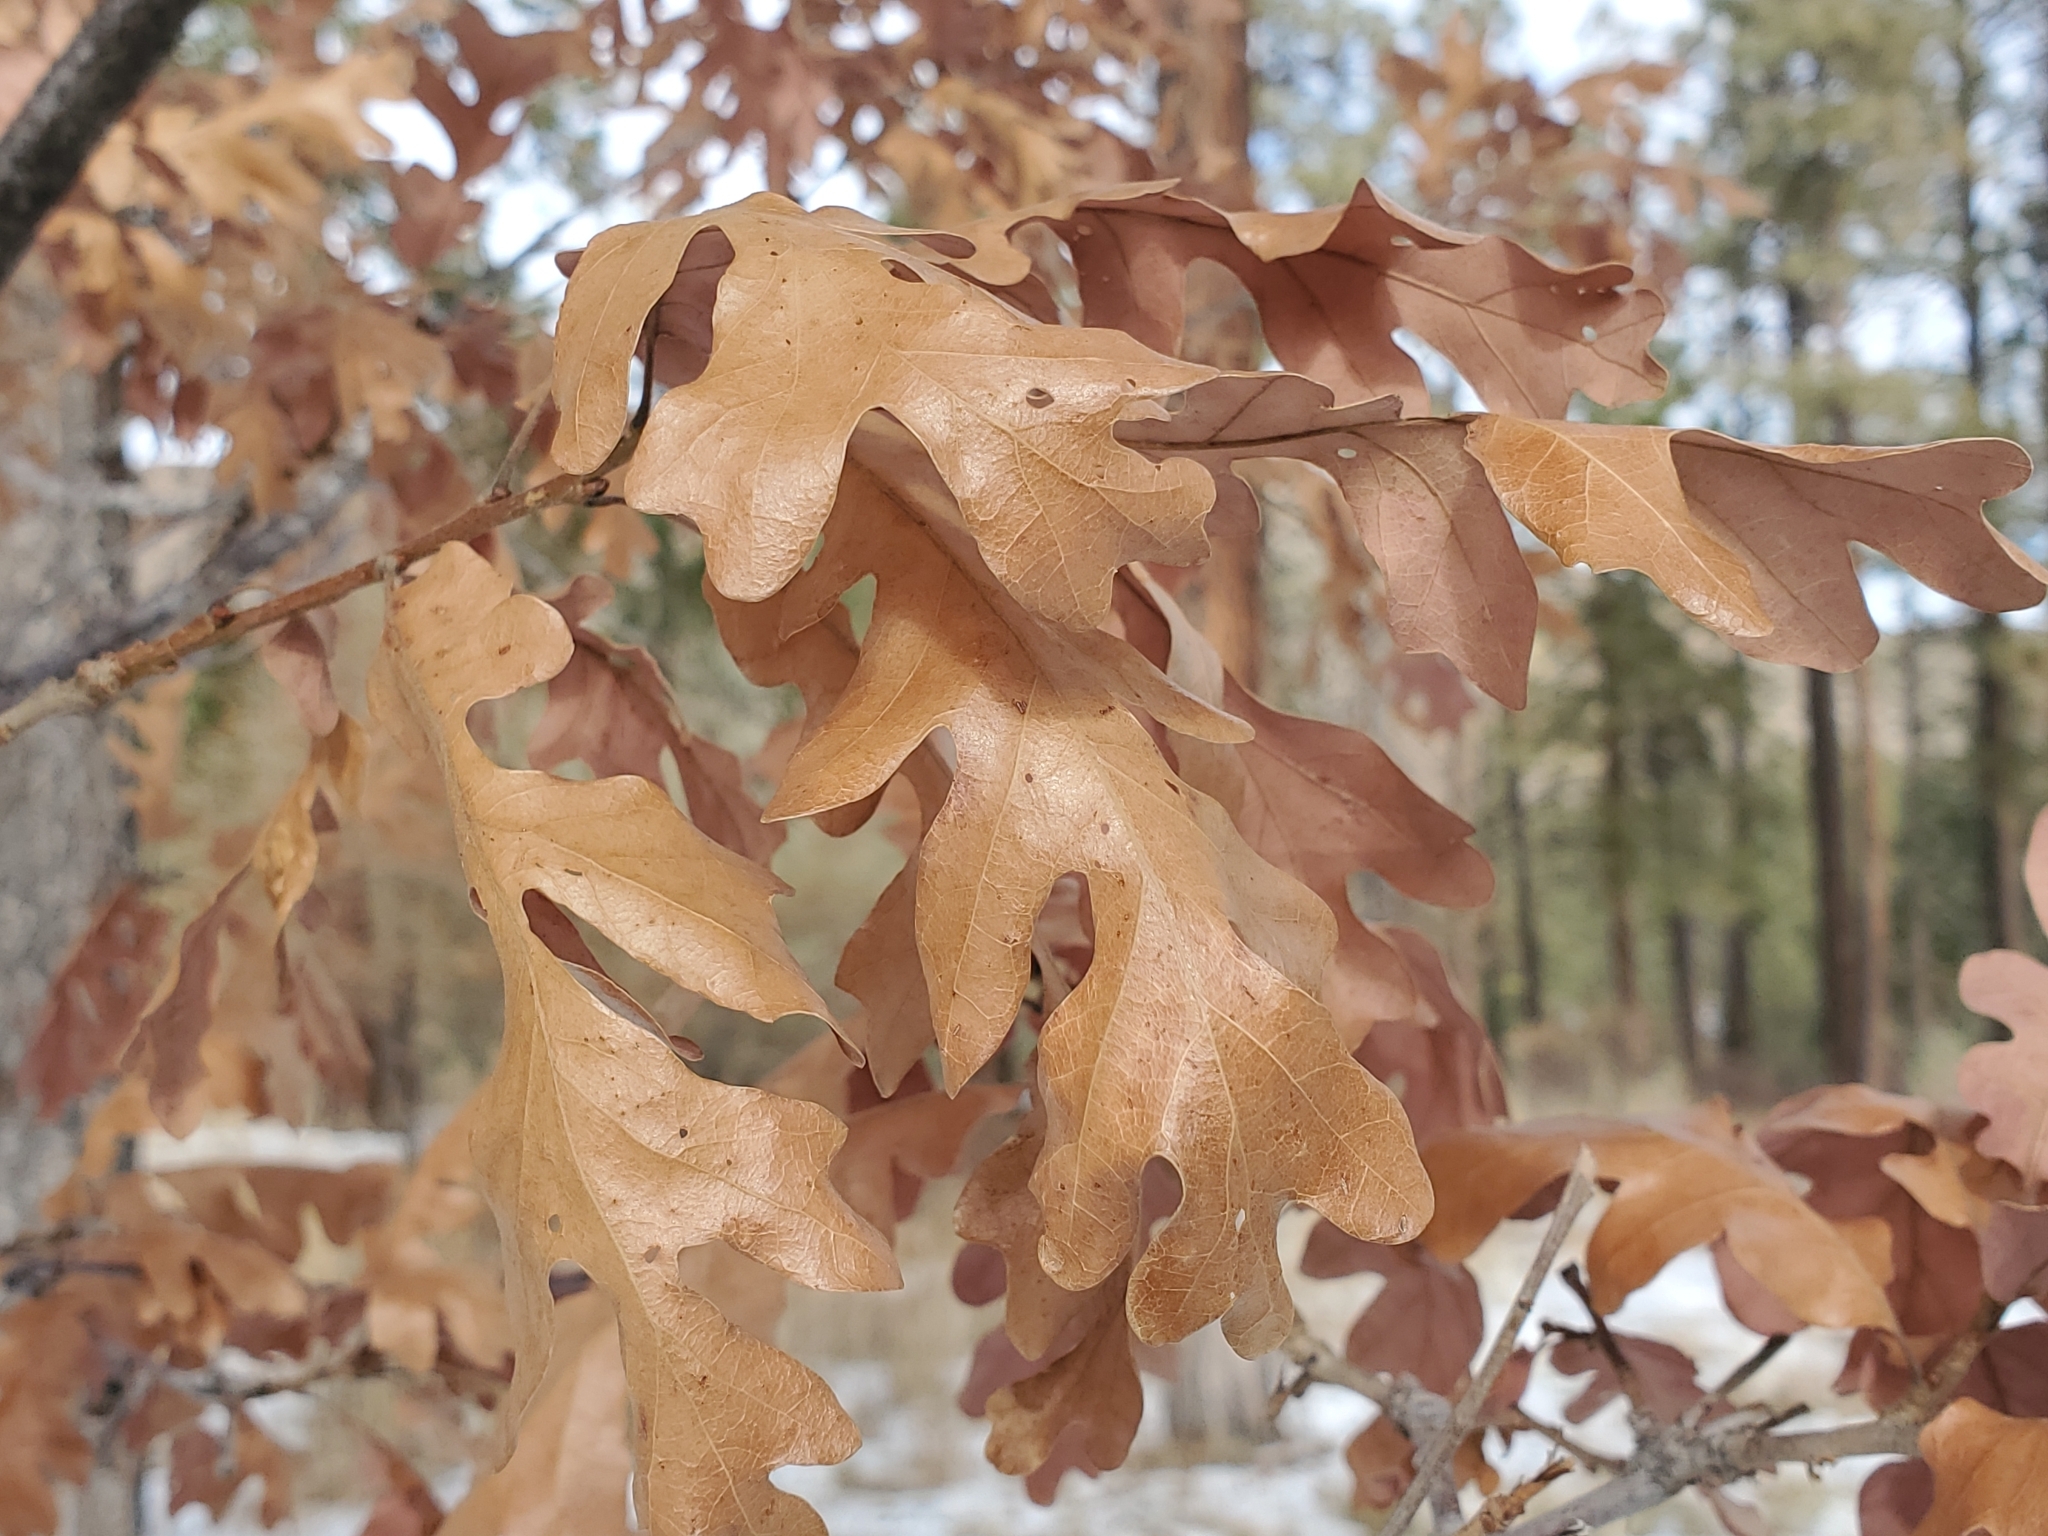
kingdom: Plantae
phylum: Tracheophyta
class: Magnoliopsida
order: Fagales
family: Fagaceae
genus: Quercus
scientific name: Quercus gambelii
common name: Gambel oak
